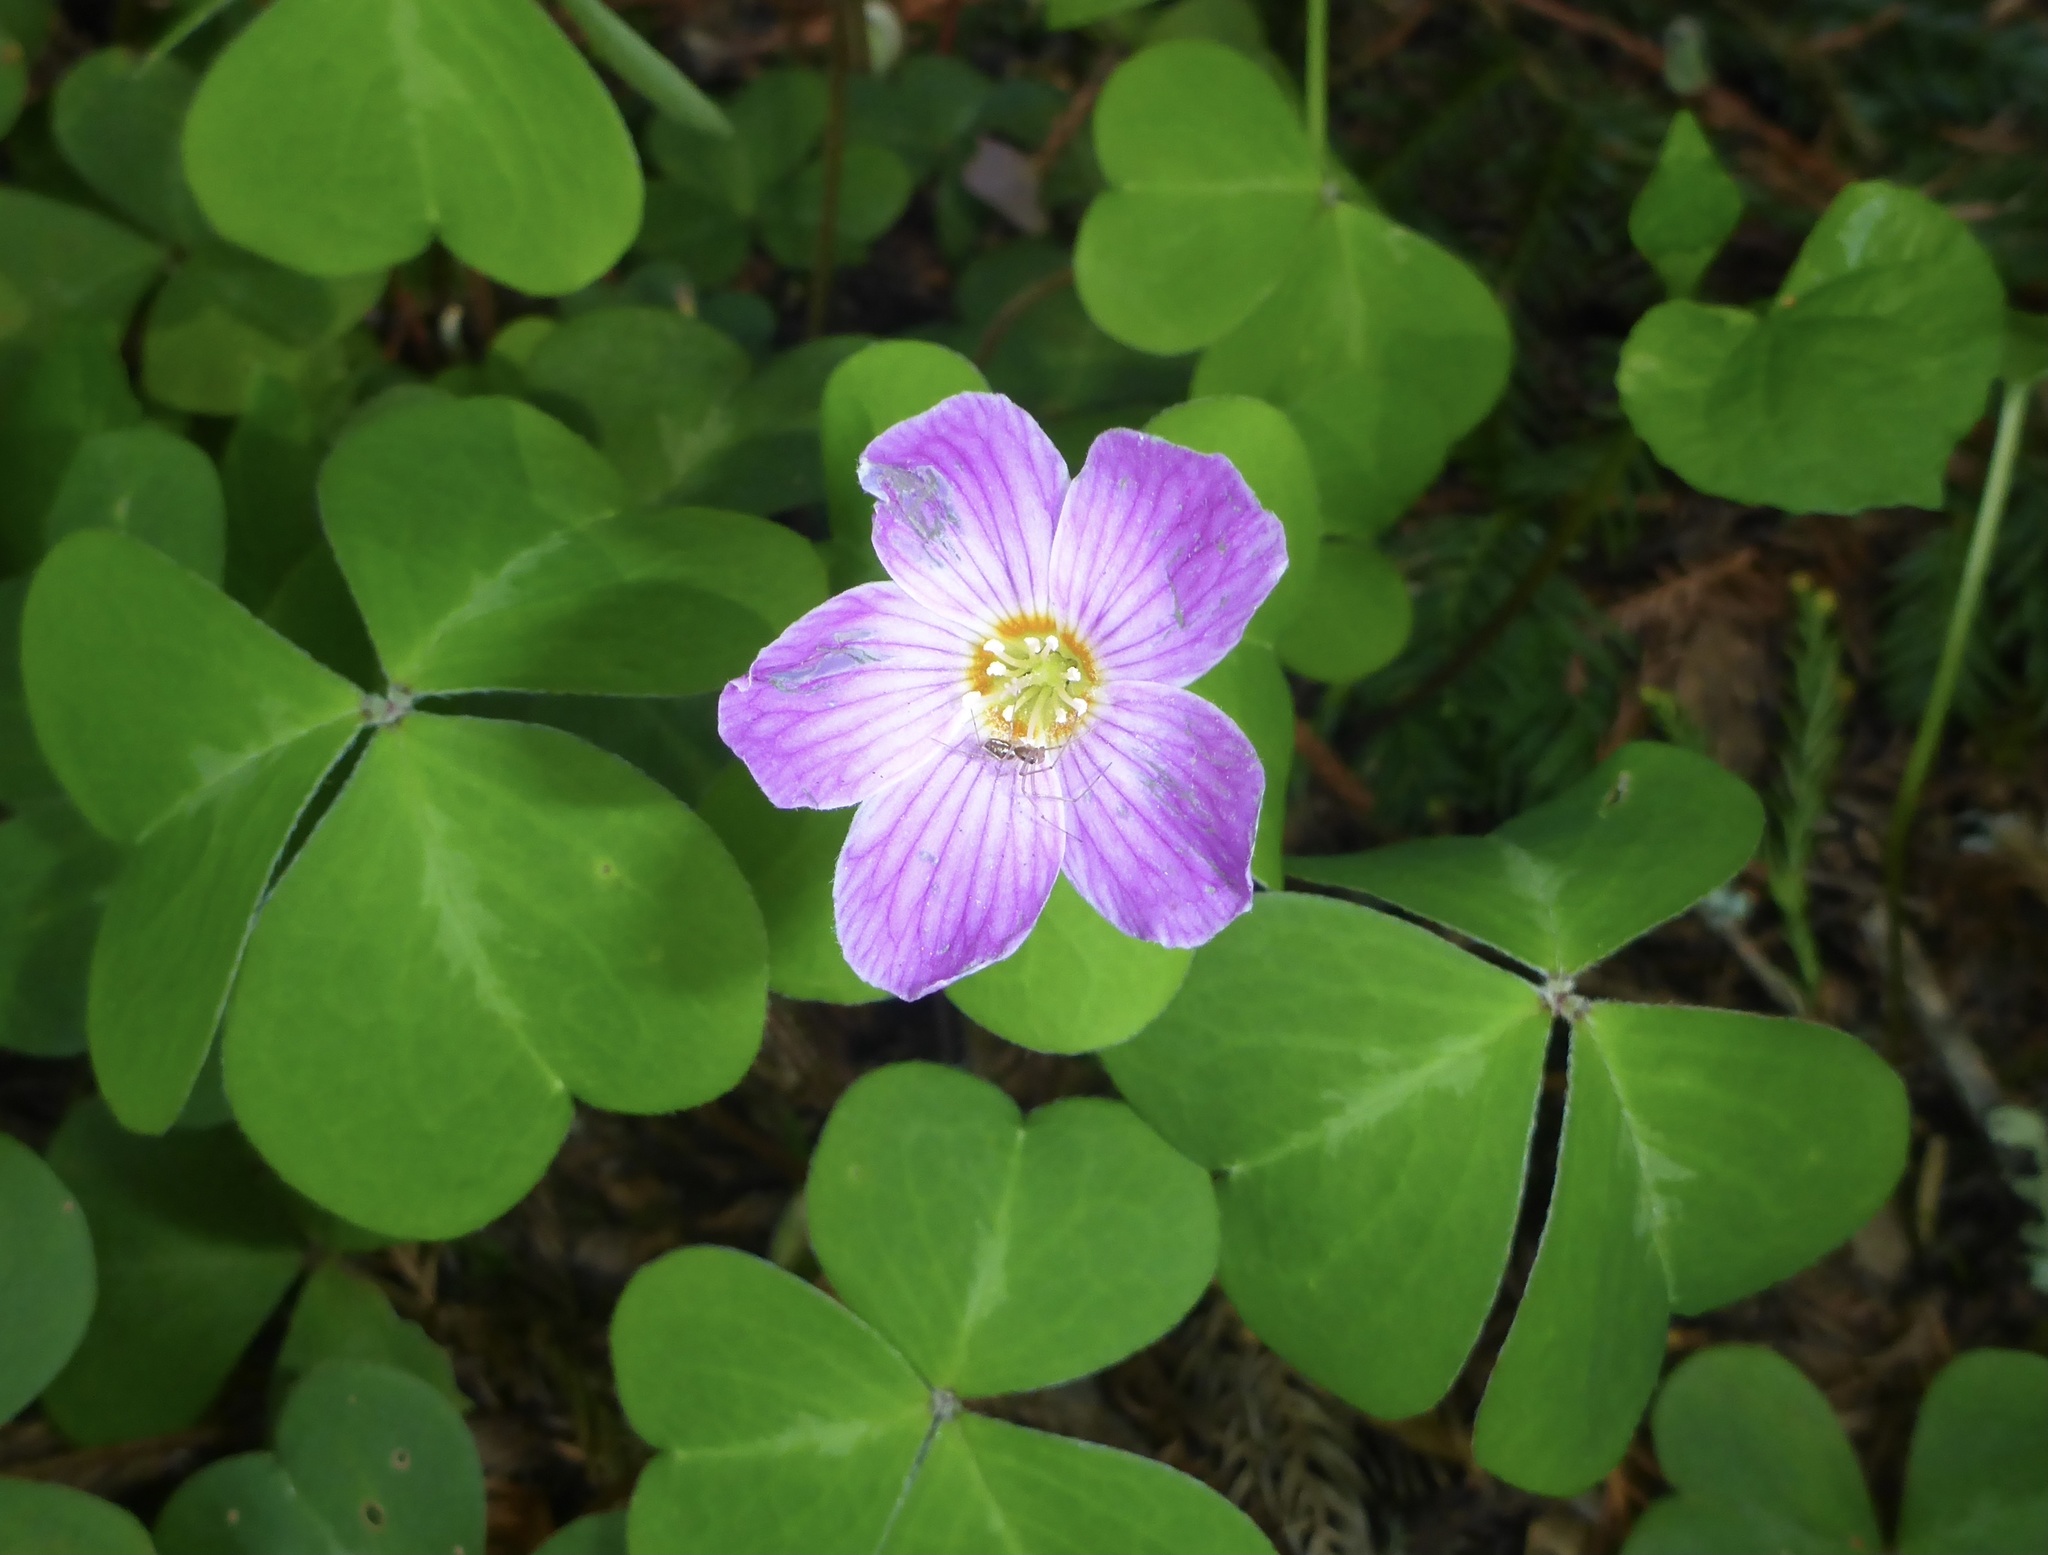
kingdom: Plantae
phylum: Tracheophyta
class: Magnoliopsida
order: Oxalidales
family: Oxalidaceae
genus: Oxalis
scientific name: Oxalis oregana
